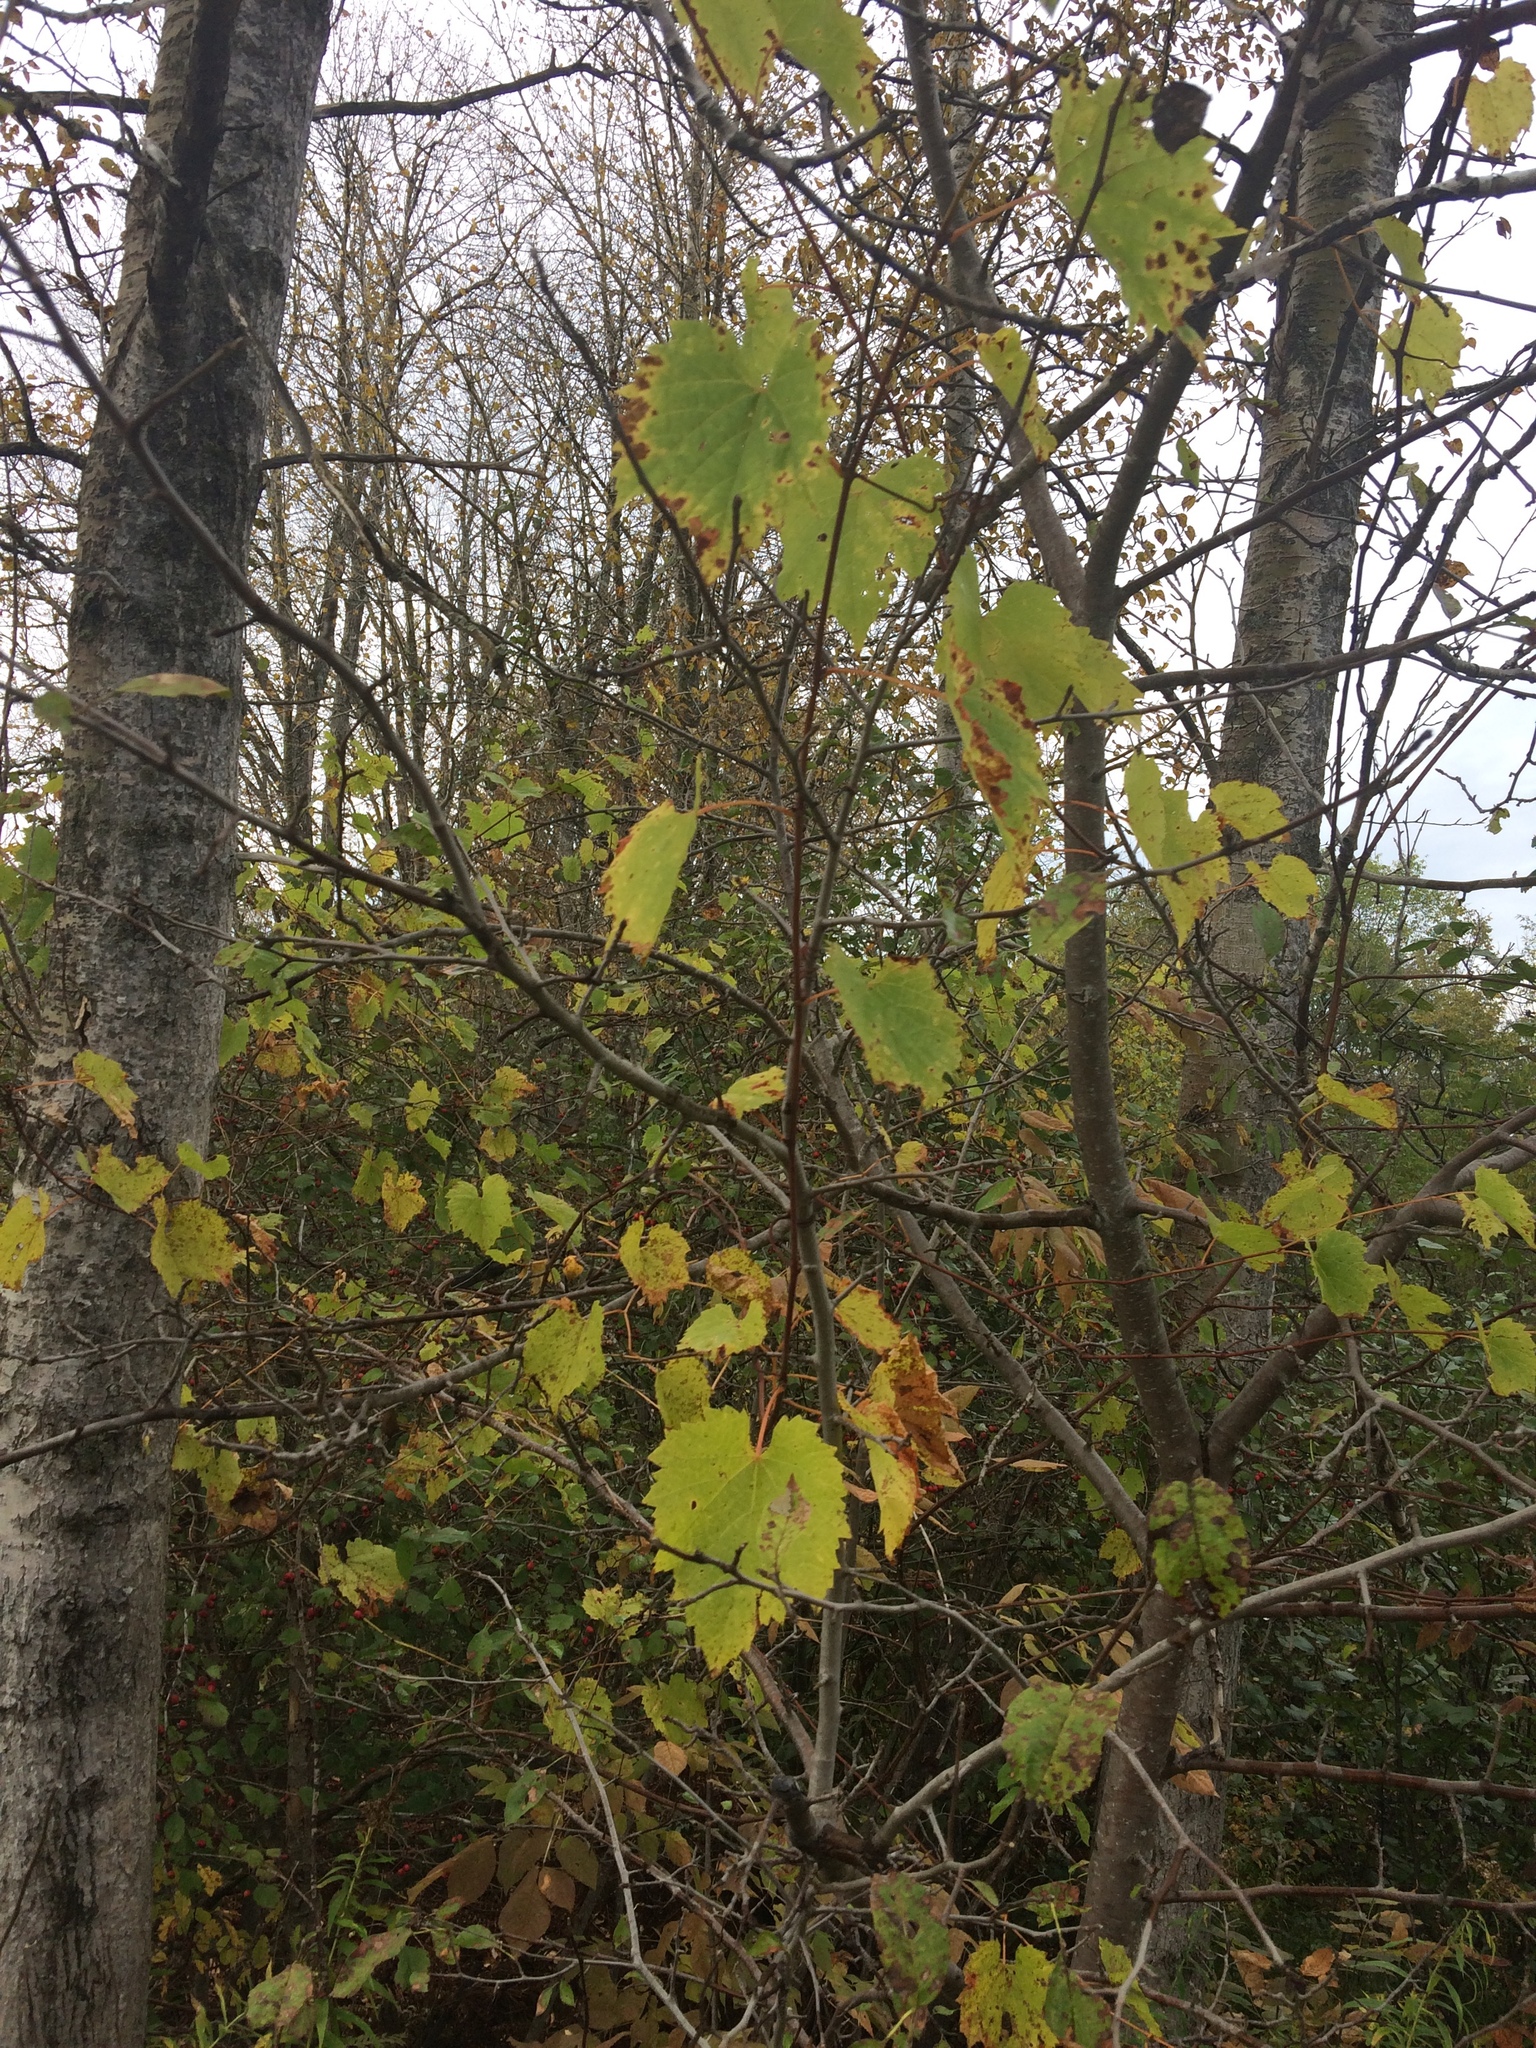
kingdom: Plantae
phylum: Tracheophyta
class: Magnoliopsida
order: Vitales
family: Vitaceae
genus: Vitis
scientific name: Vitis riparia
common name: Frost grape
